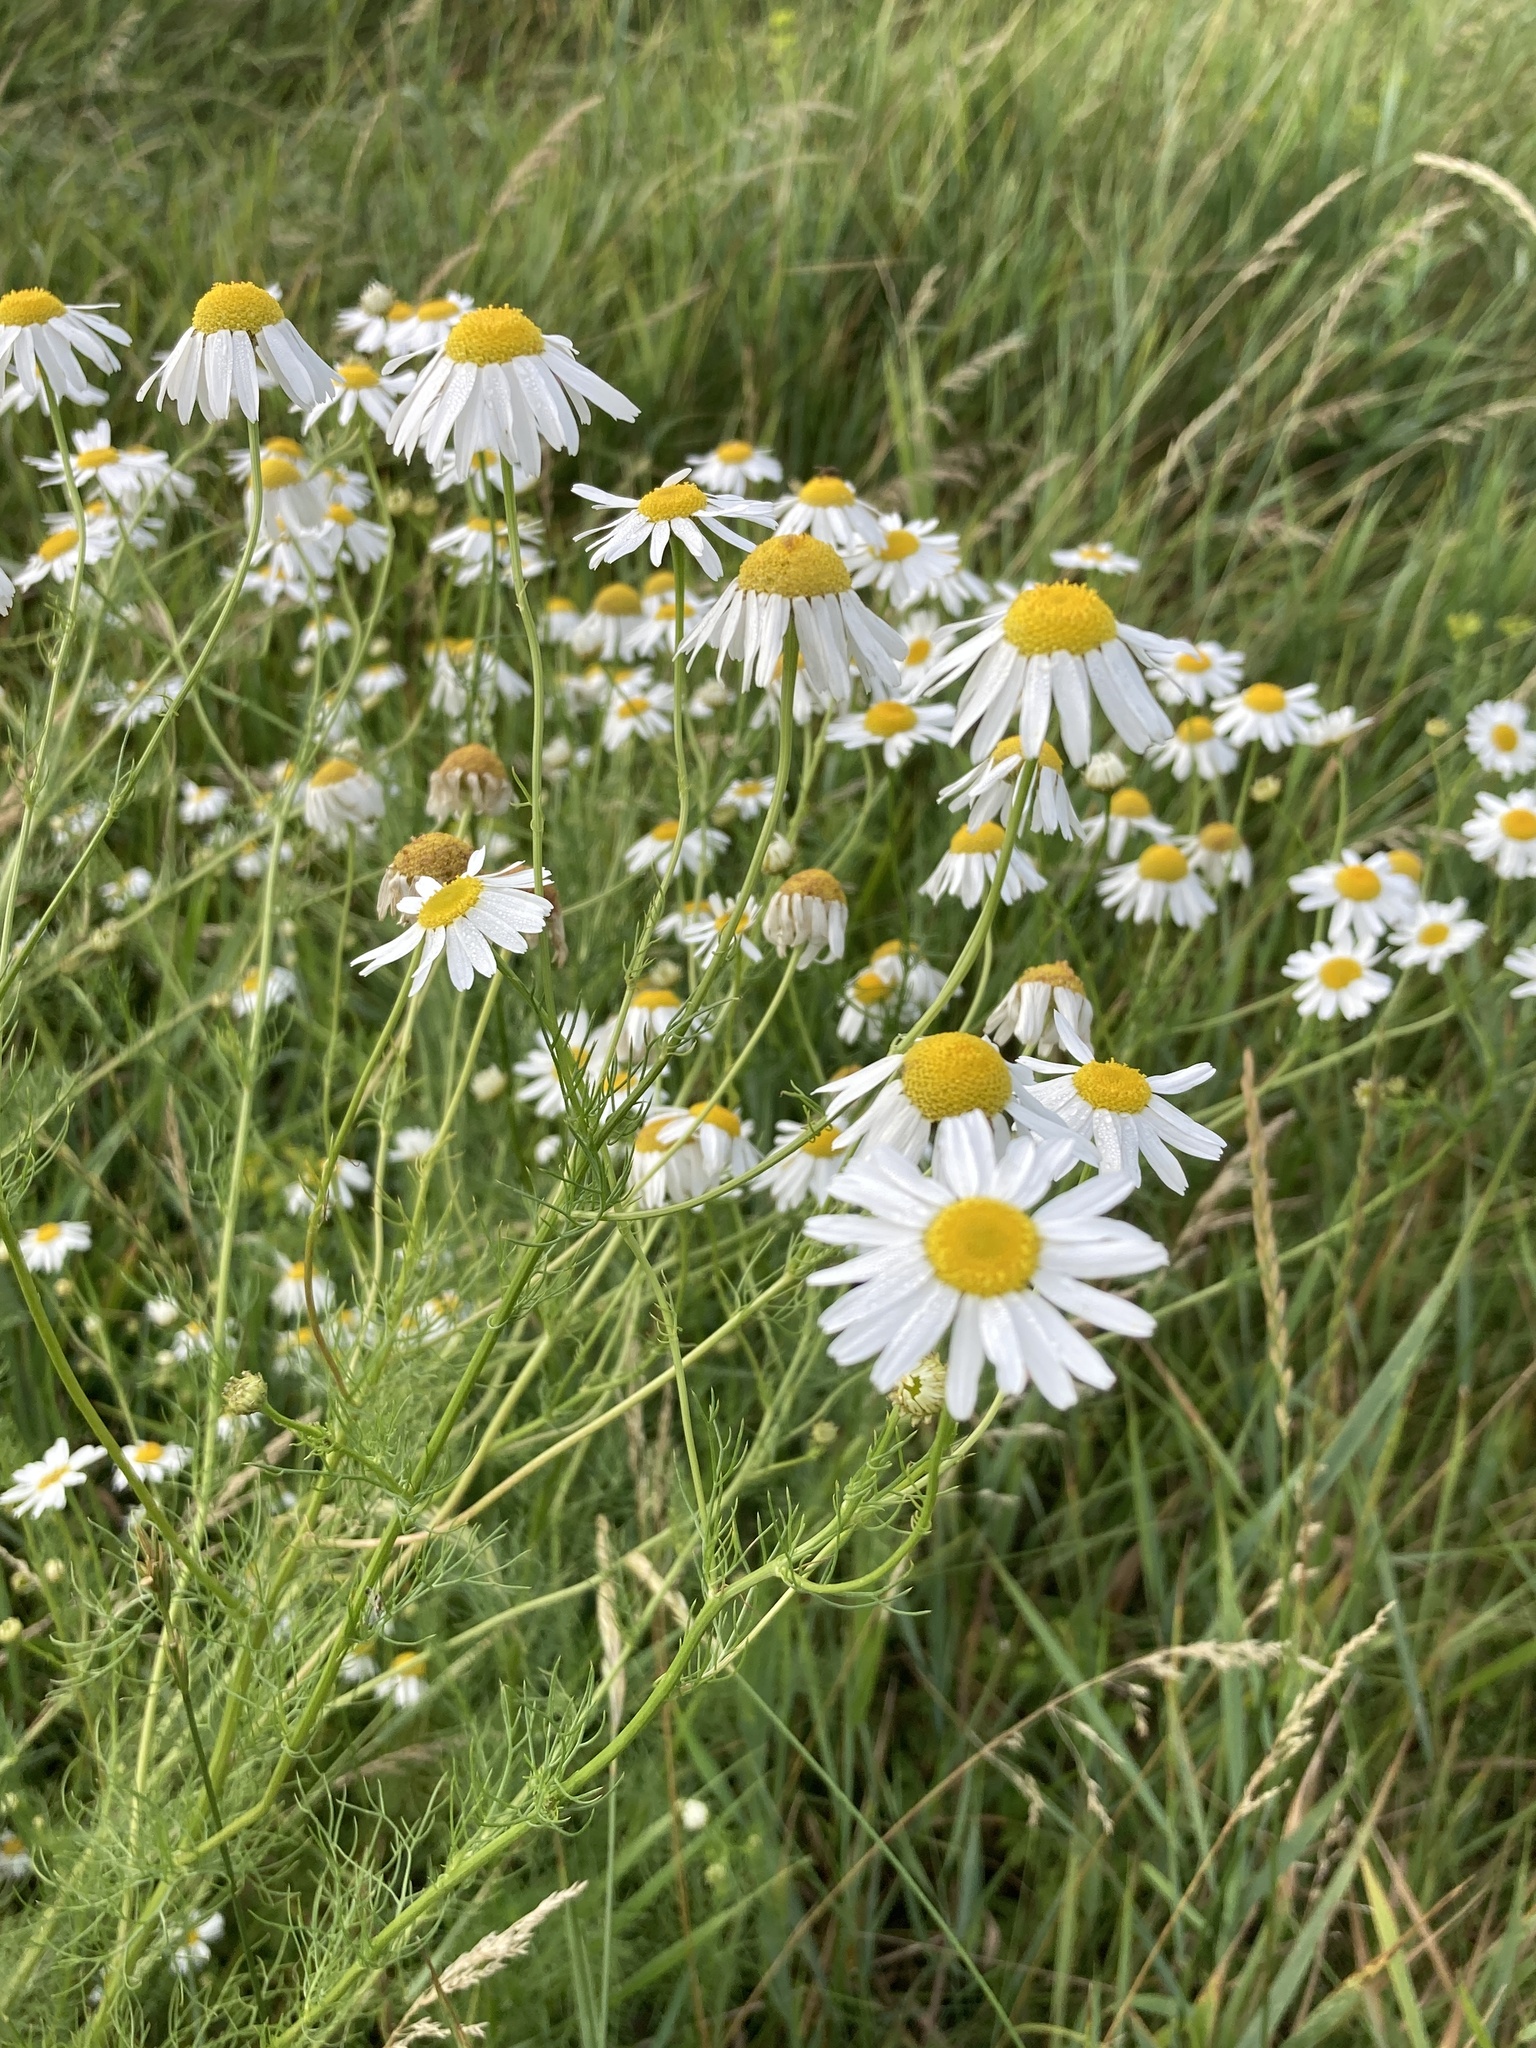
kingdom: Plantae
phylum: Tracheophyta
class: Magnoliopsida
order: Asterales
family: Asteraceae
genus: Tripleurospermum
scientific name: Tripleurospermum inodorum
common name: Scentless mayweed
